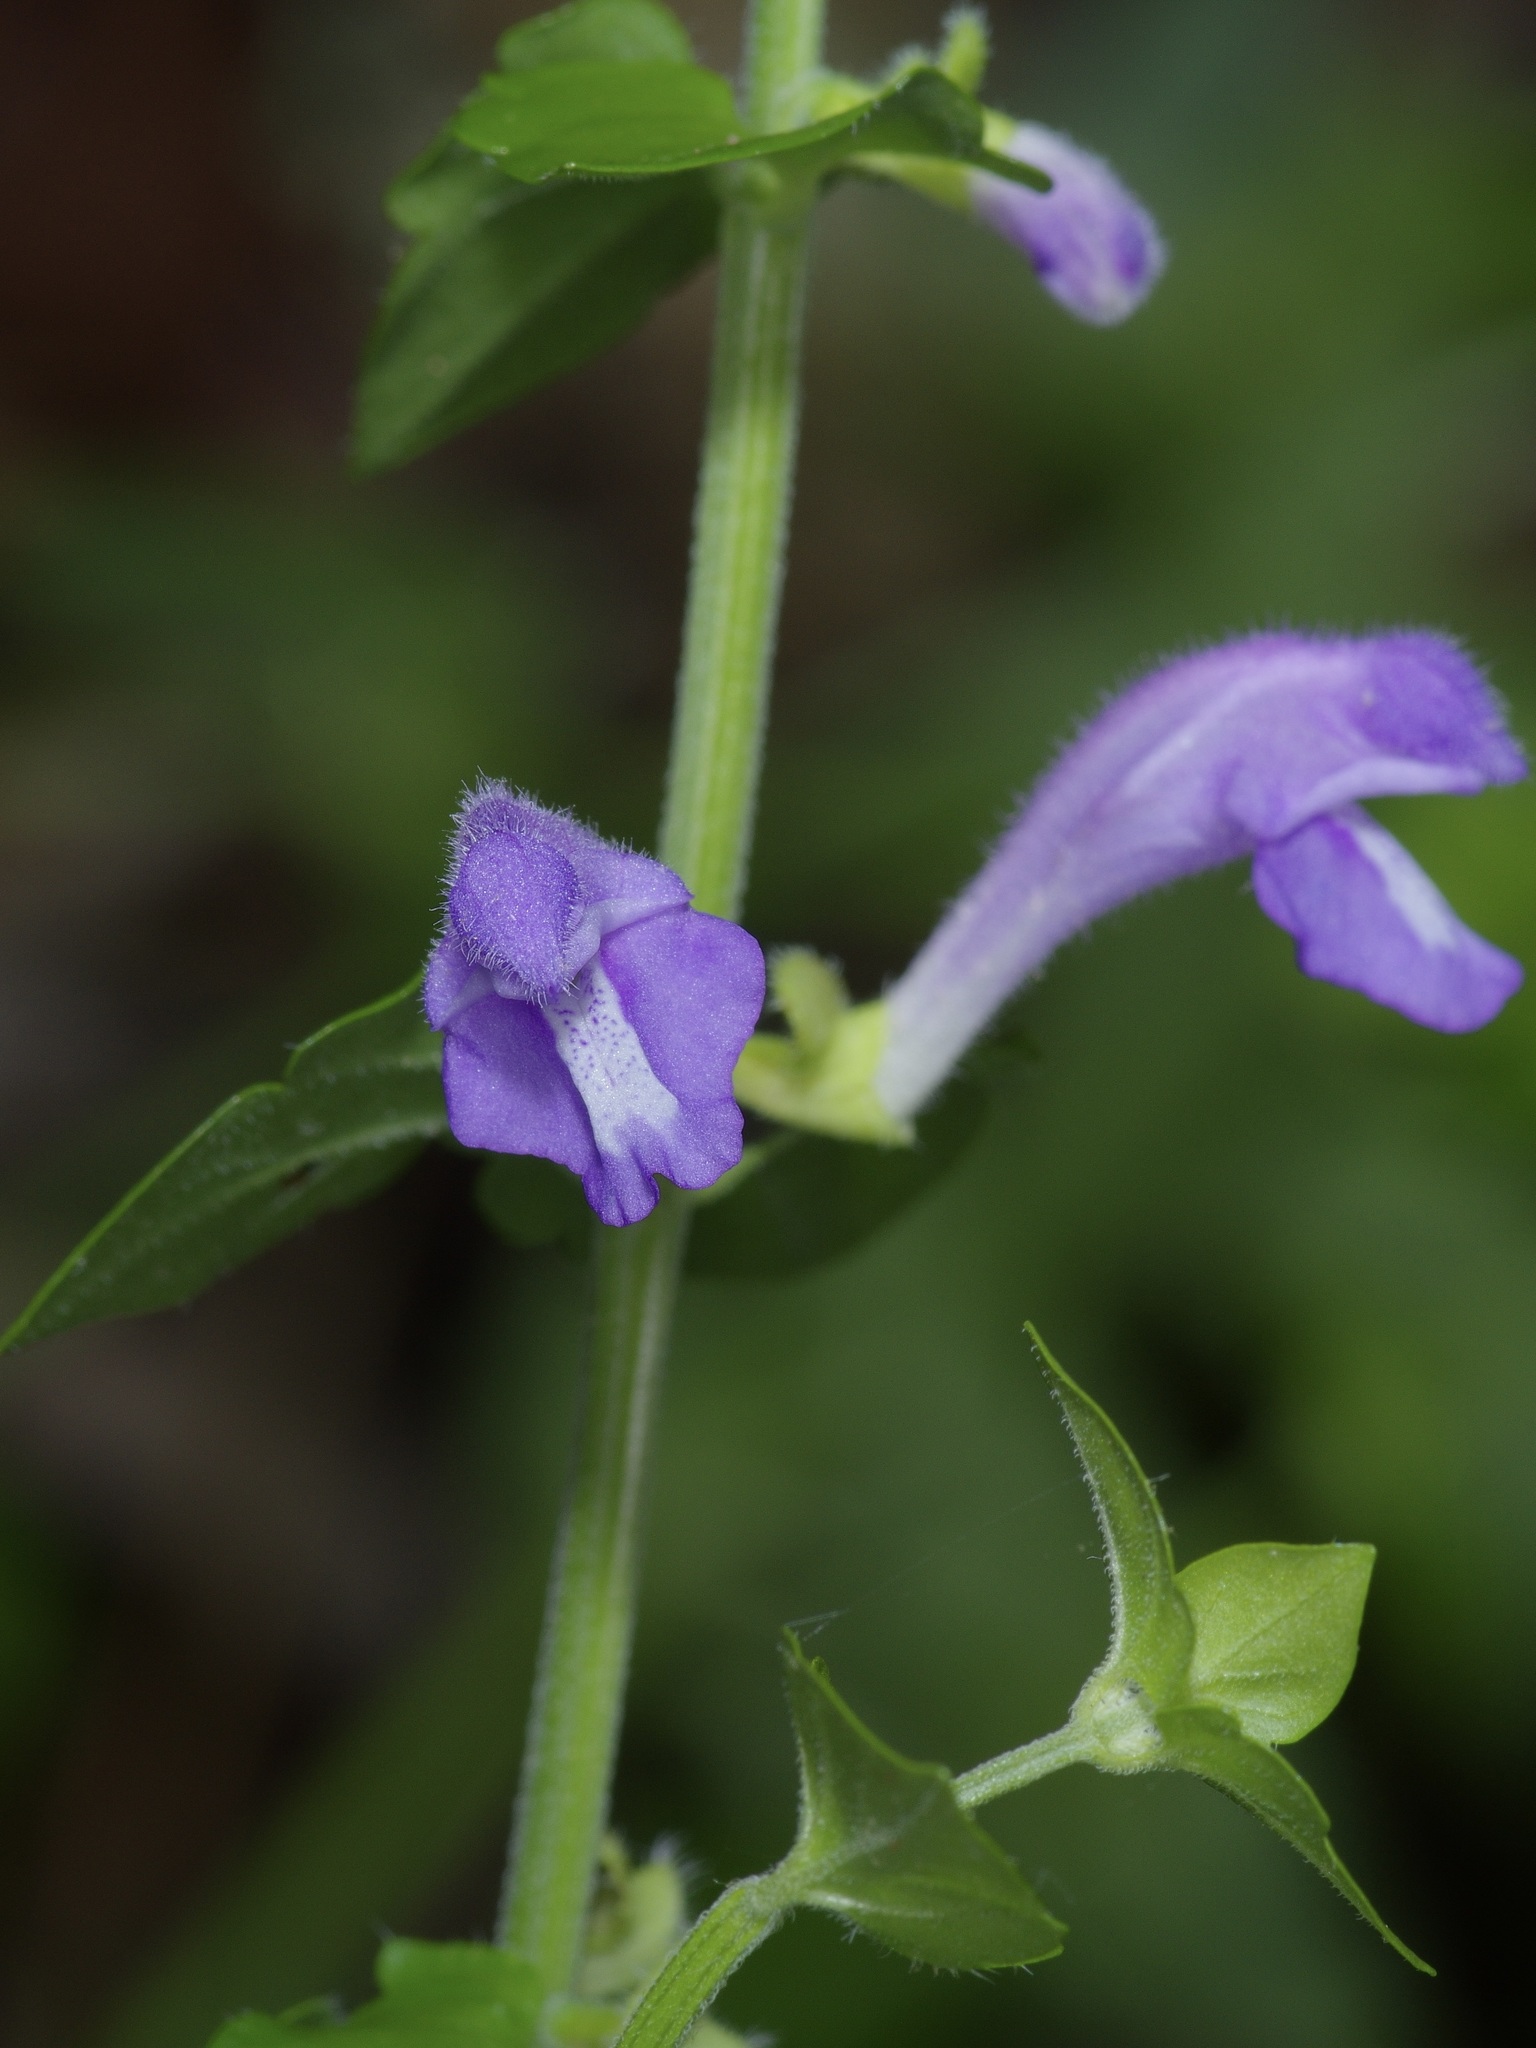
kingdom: Plantae
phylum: Tracheophyta
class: Magnoliopsida
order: Lamiales
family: Lamiaceae
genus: Scutellaria
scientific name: Scutellaria cardiophylla
